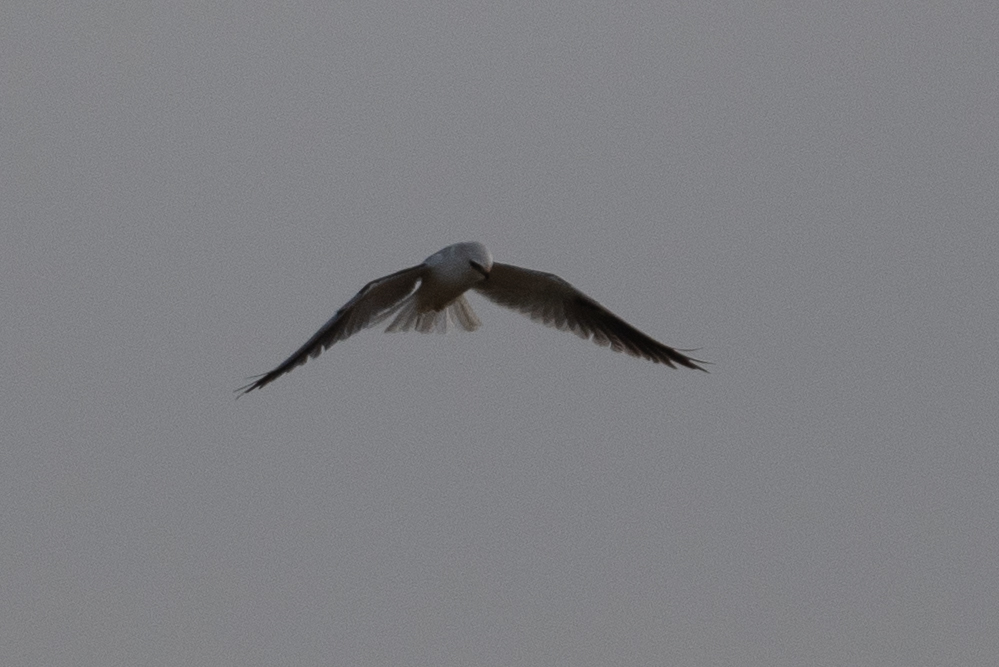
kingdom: Animalia
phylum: Chordata
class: Aves
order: Accipitriformes
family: Accipitridae
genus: Elanus
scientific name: Elanus leucurus
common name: White-tailed kite
